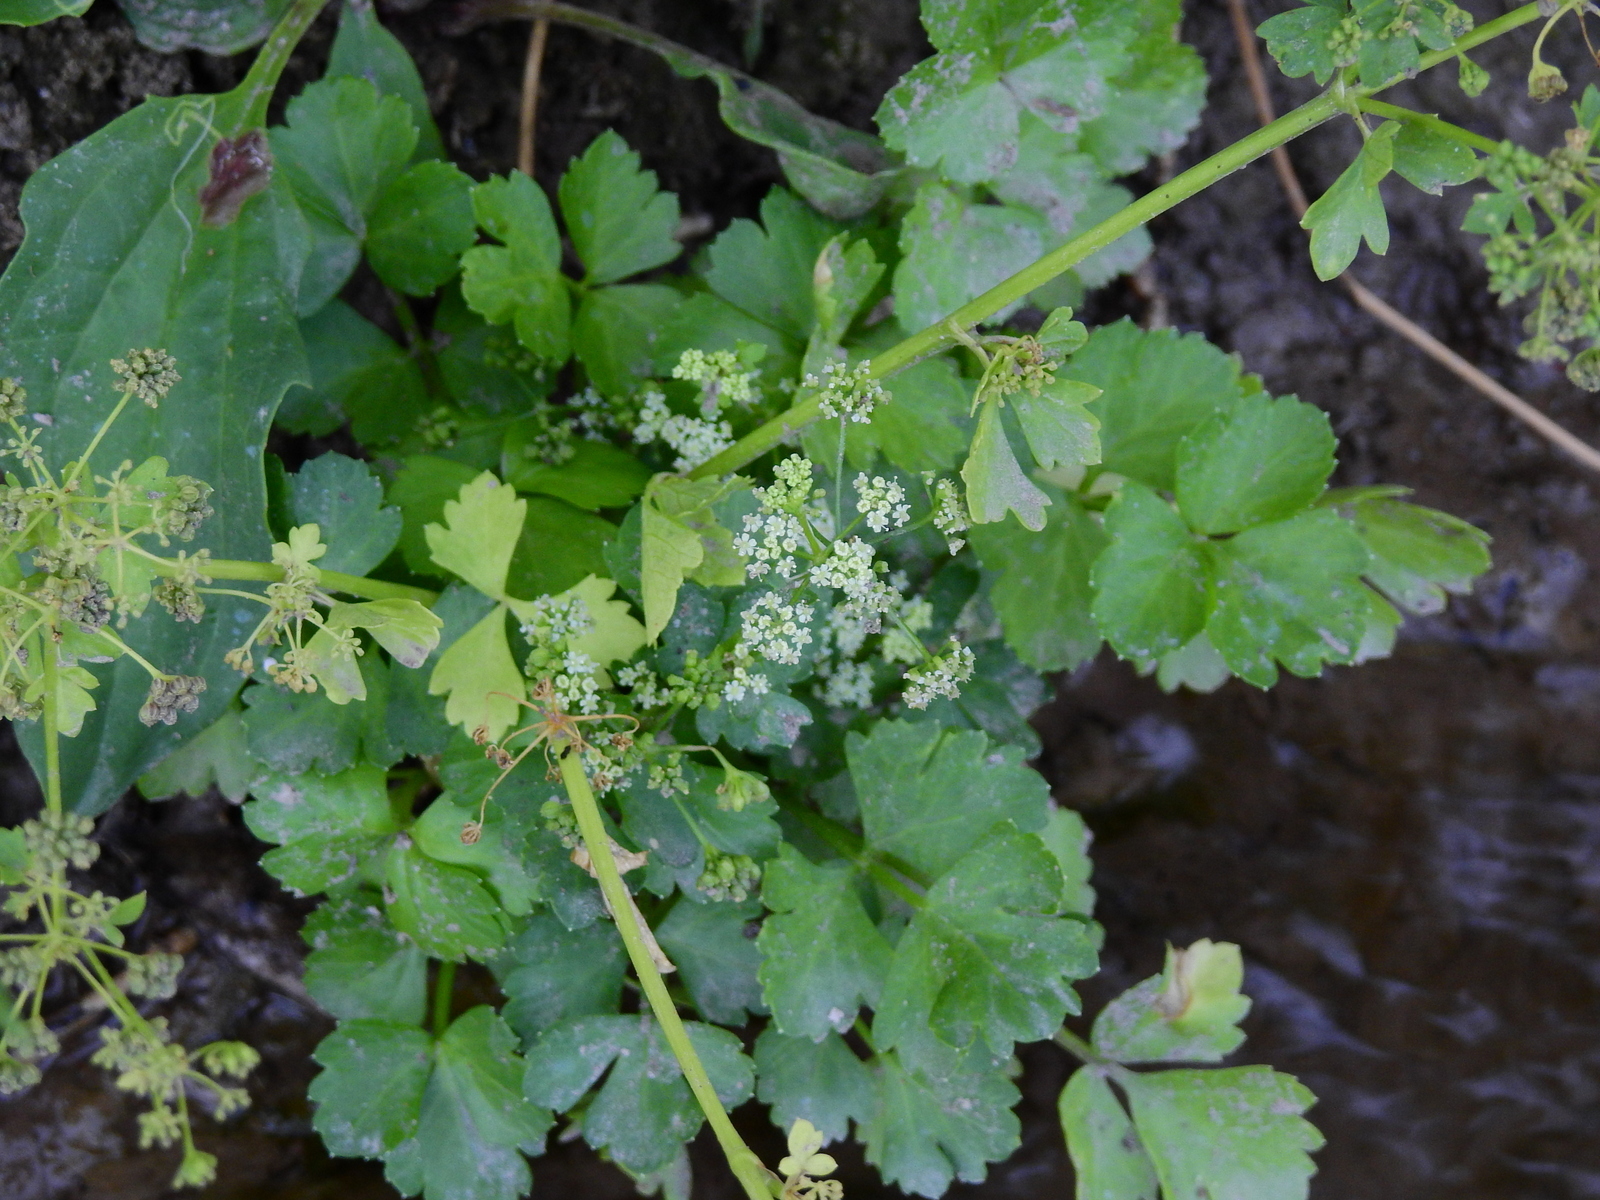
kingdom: Plantae
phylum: Tracheophyta
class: Magnoliopsida
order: Apiales
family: Apiaceae
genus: Apium
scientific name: Apium graveolens
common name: Wild celery
